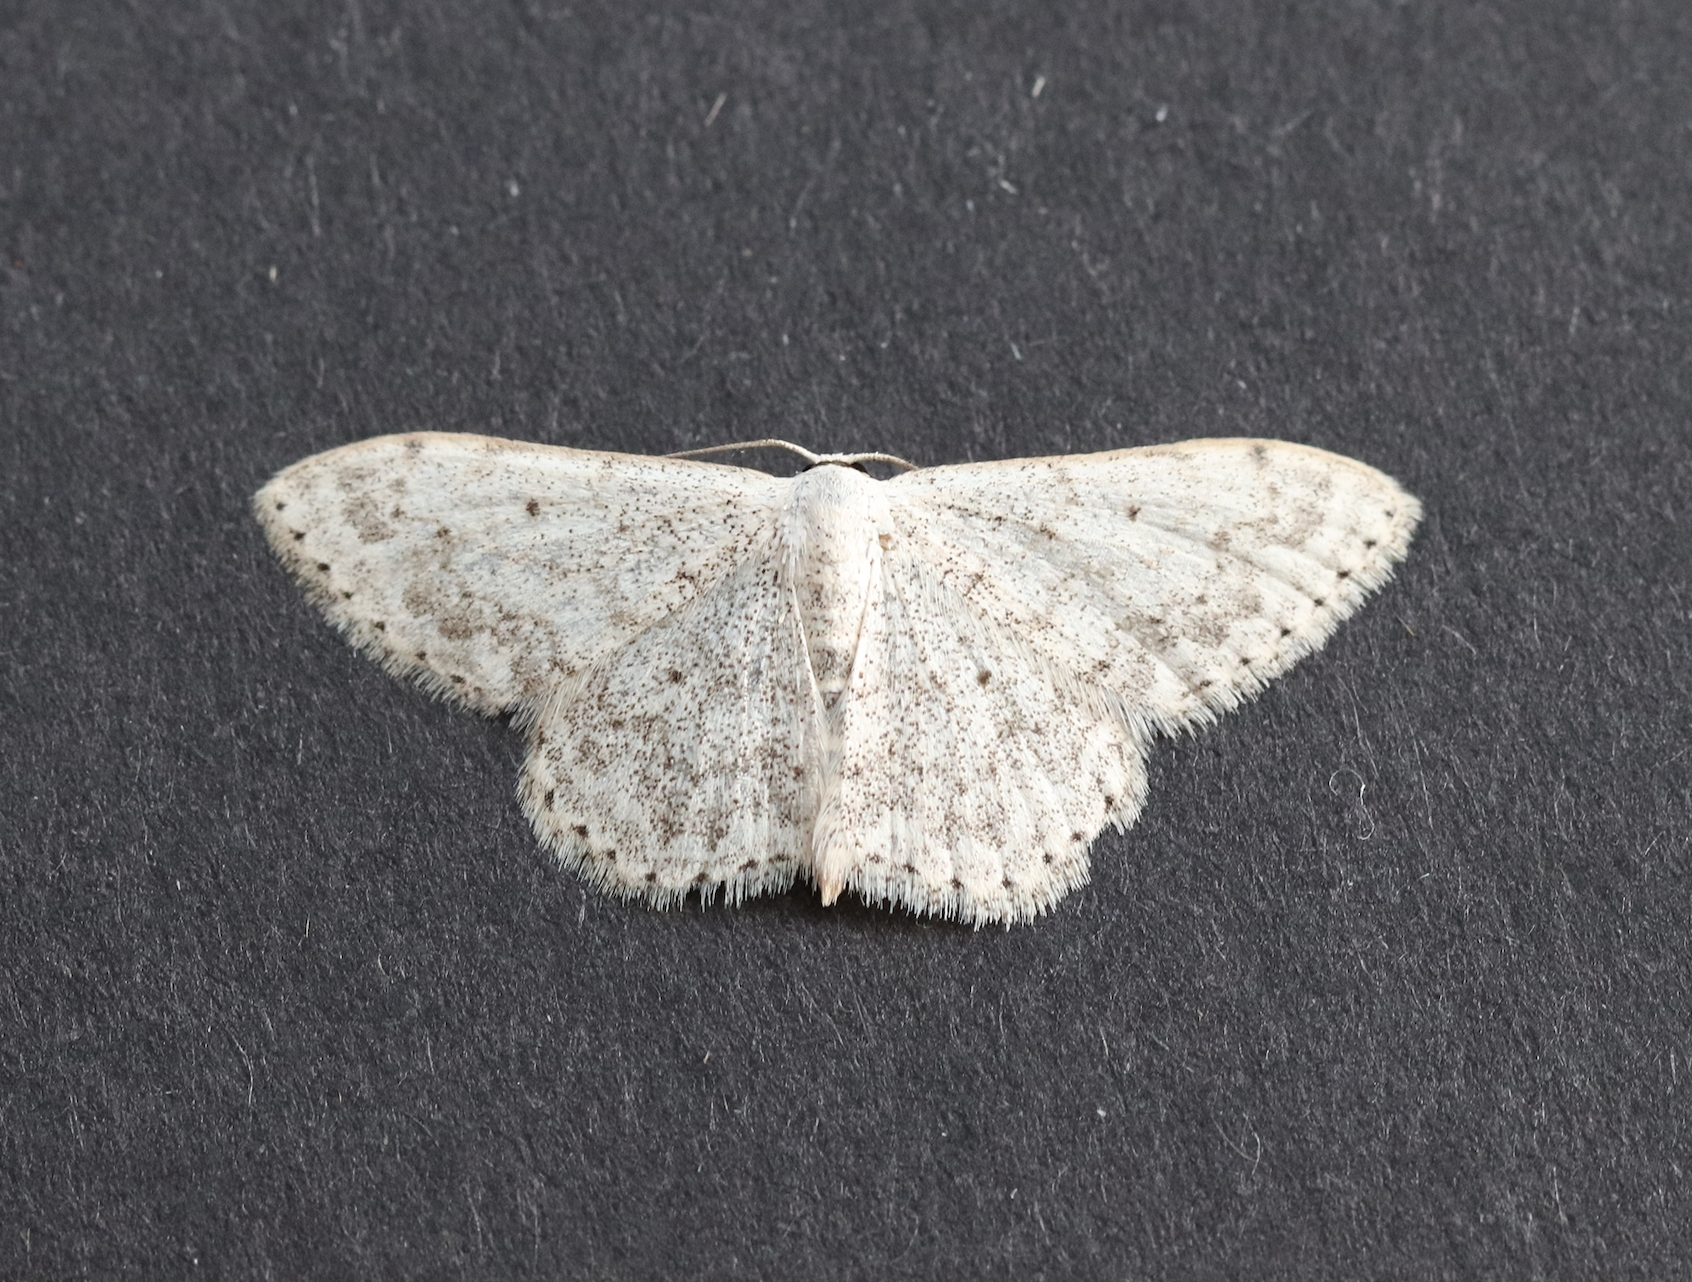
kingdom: Animalia
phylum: Arthropoda
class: Insecta
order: Lepidoptera
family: Geometridae
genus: Scopula
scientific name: Scopula marginepunctata
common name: Mullein wave
